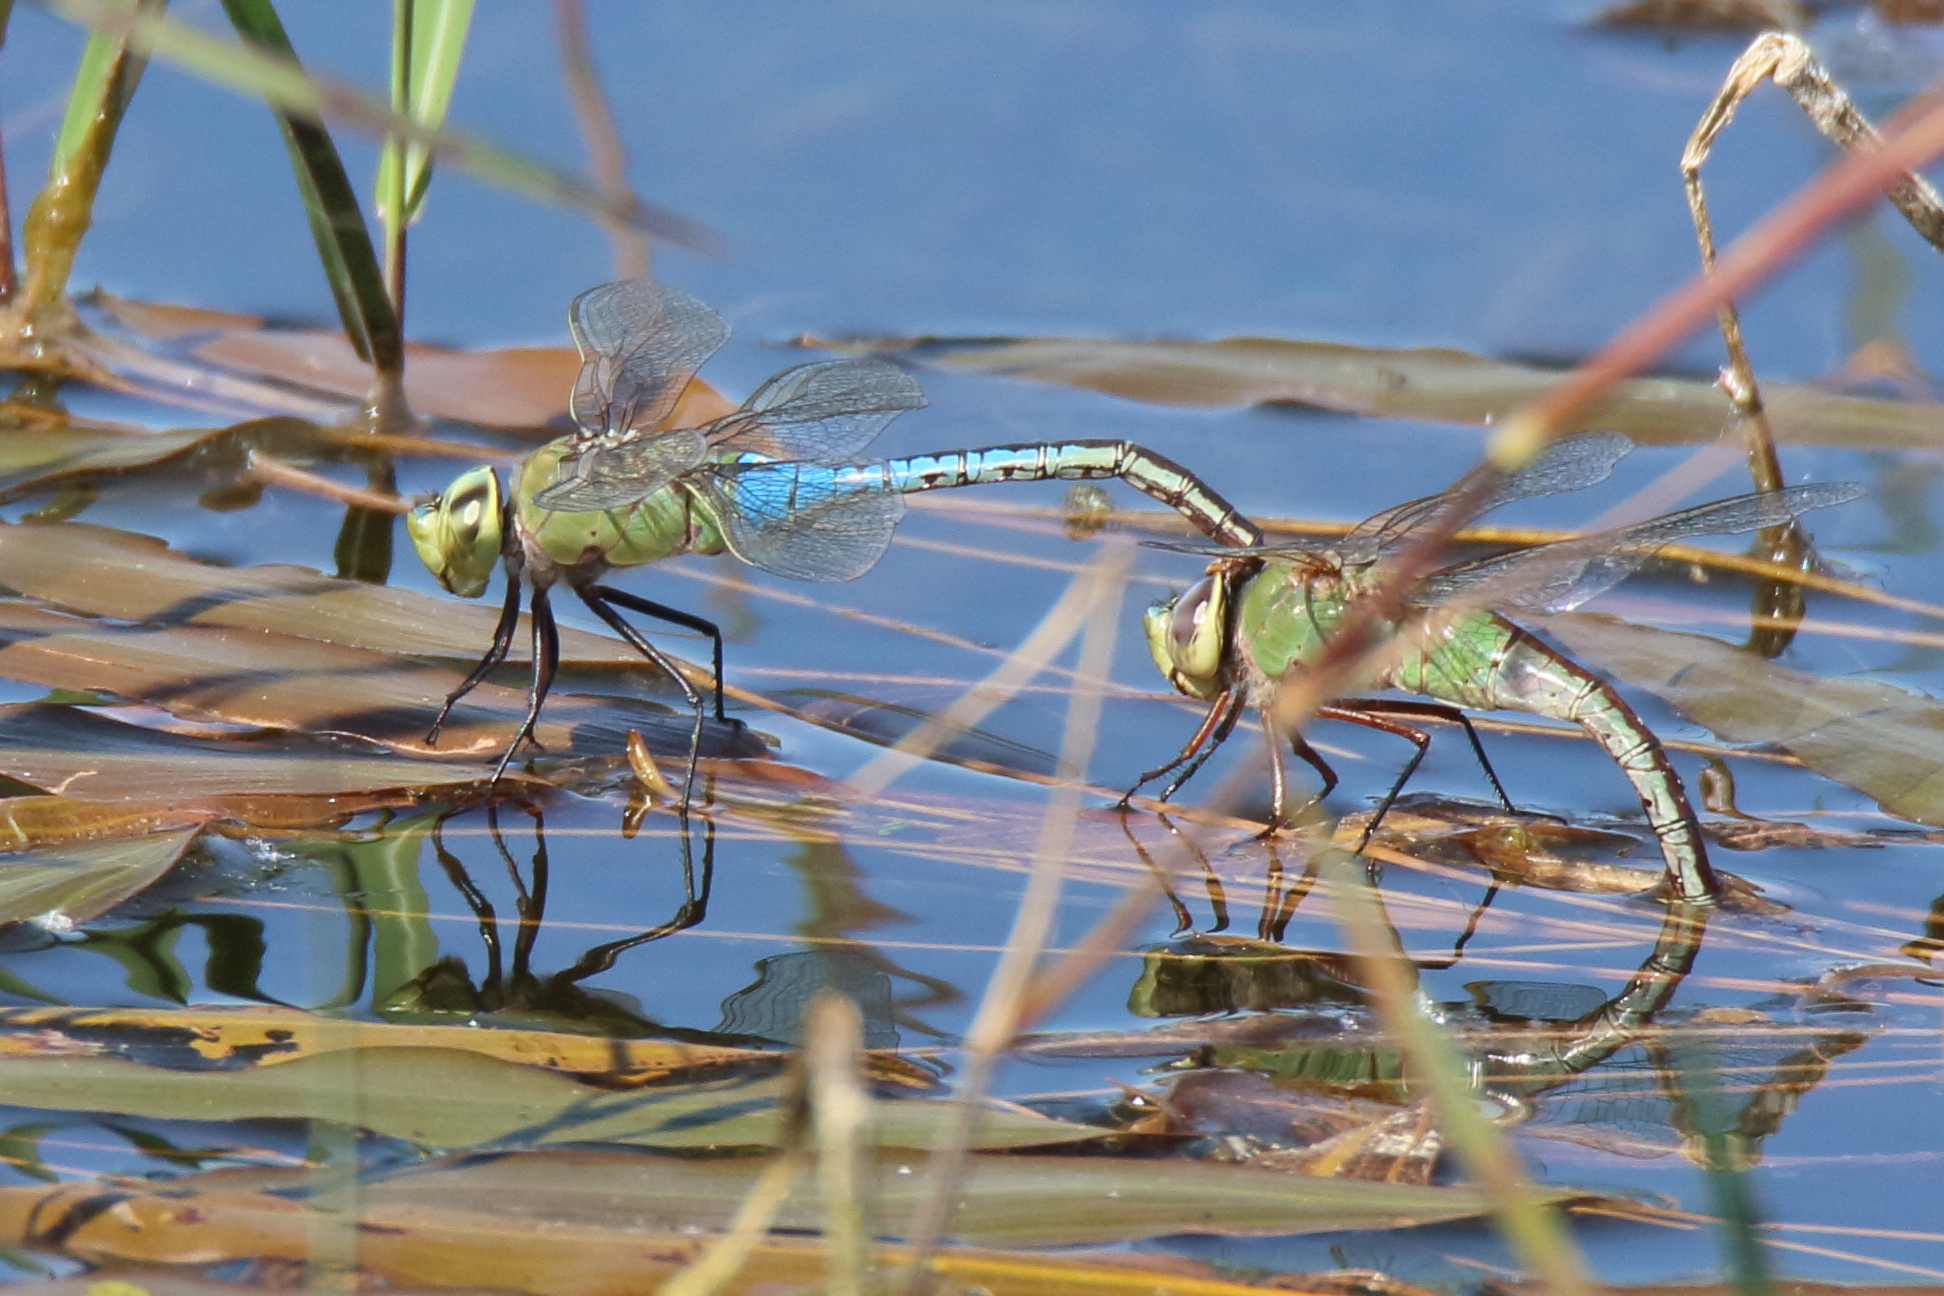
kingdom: Animalia
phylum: Arthropoda
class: Insecta
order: Odonata
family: Aeshnidae
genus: Anax
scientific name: Anax junius
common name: Common green darner
